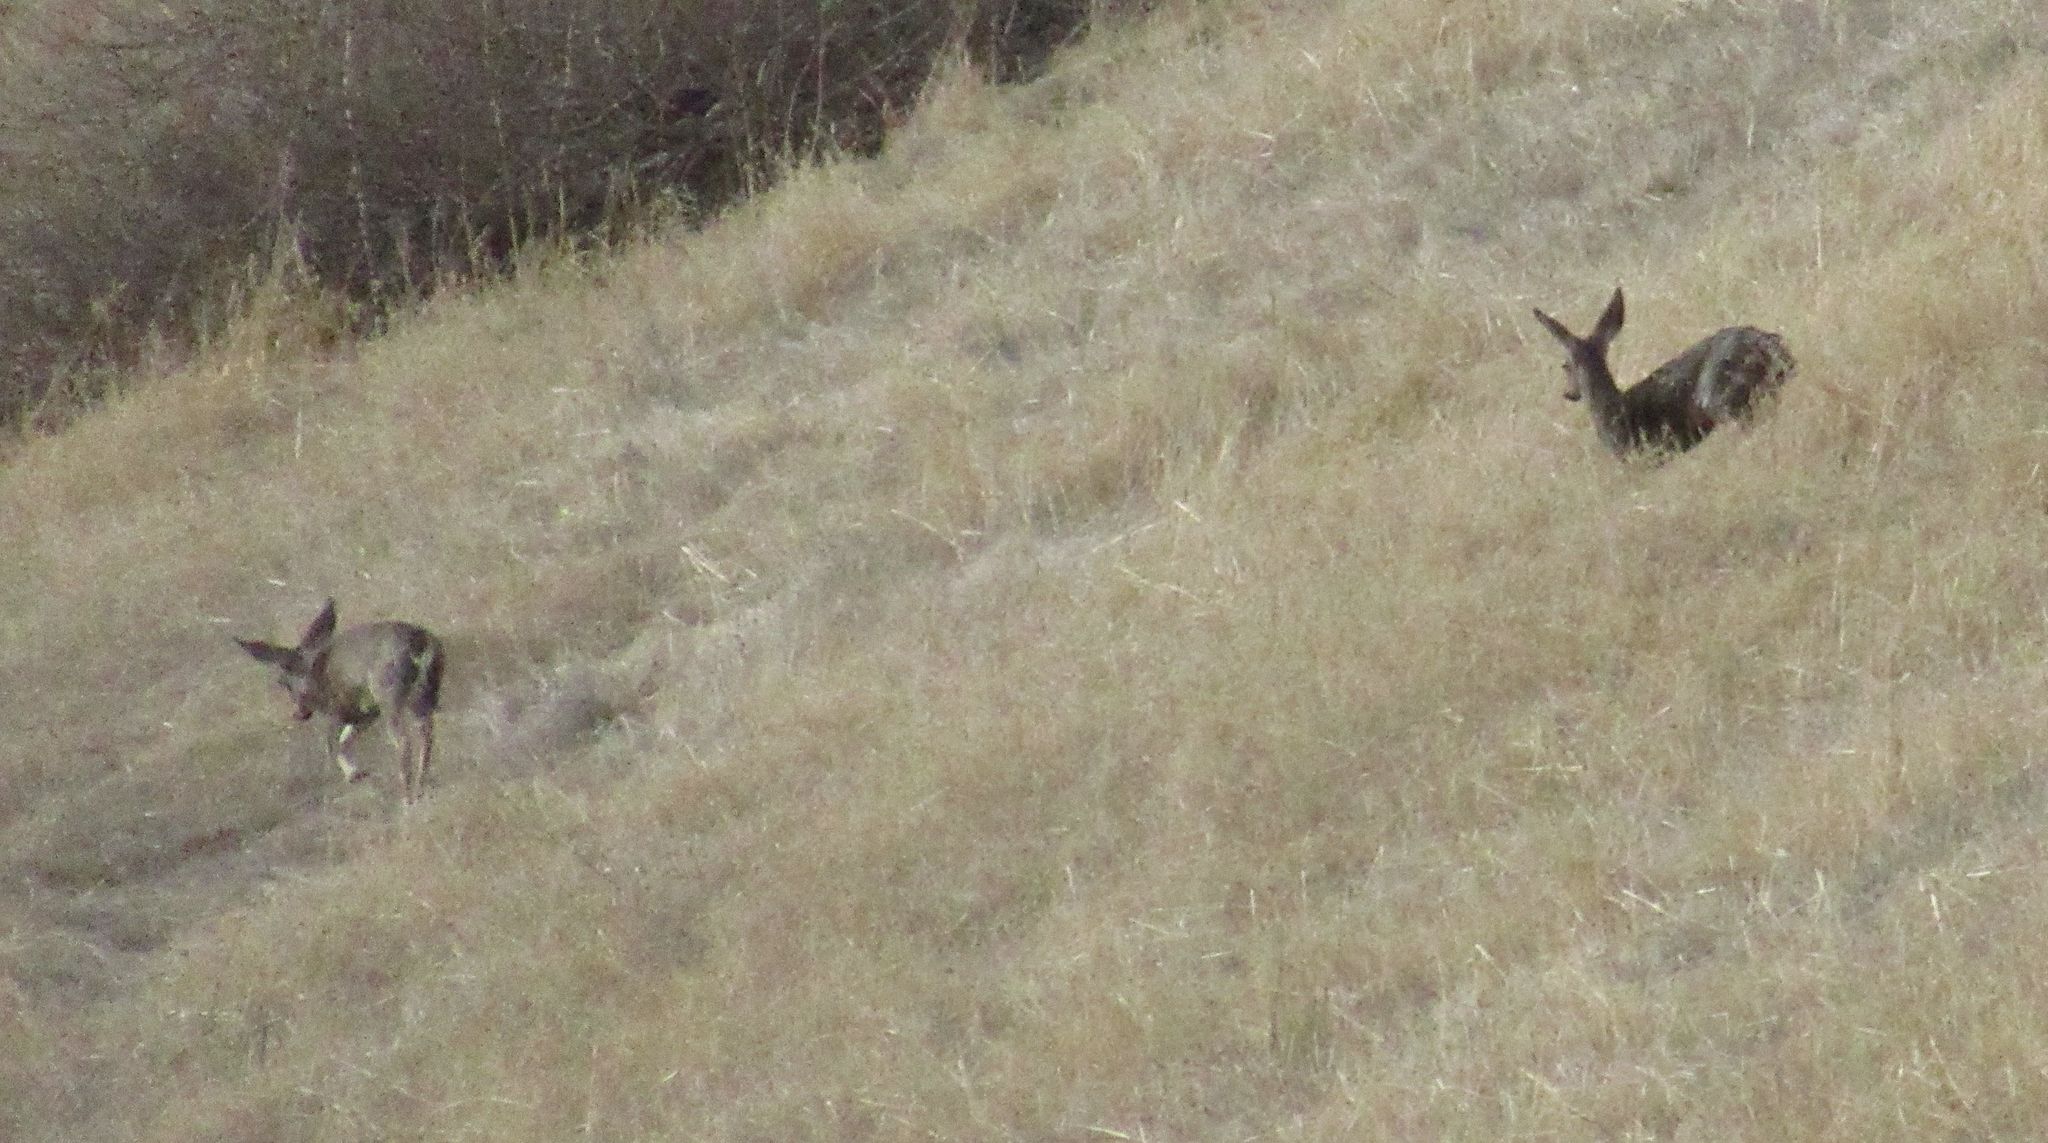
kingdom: Animalia
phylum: Chordata
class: Mammalia
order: Artiodactyla
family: Cervidae
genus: Odocoileus
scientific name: Odocoileus hemionus
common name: Mule deer
